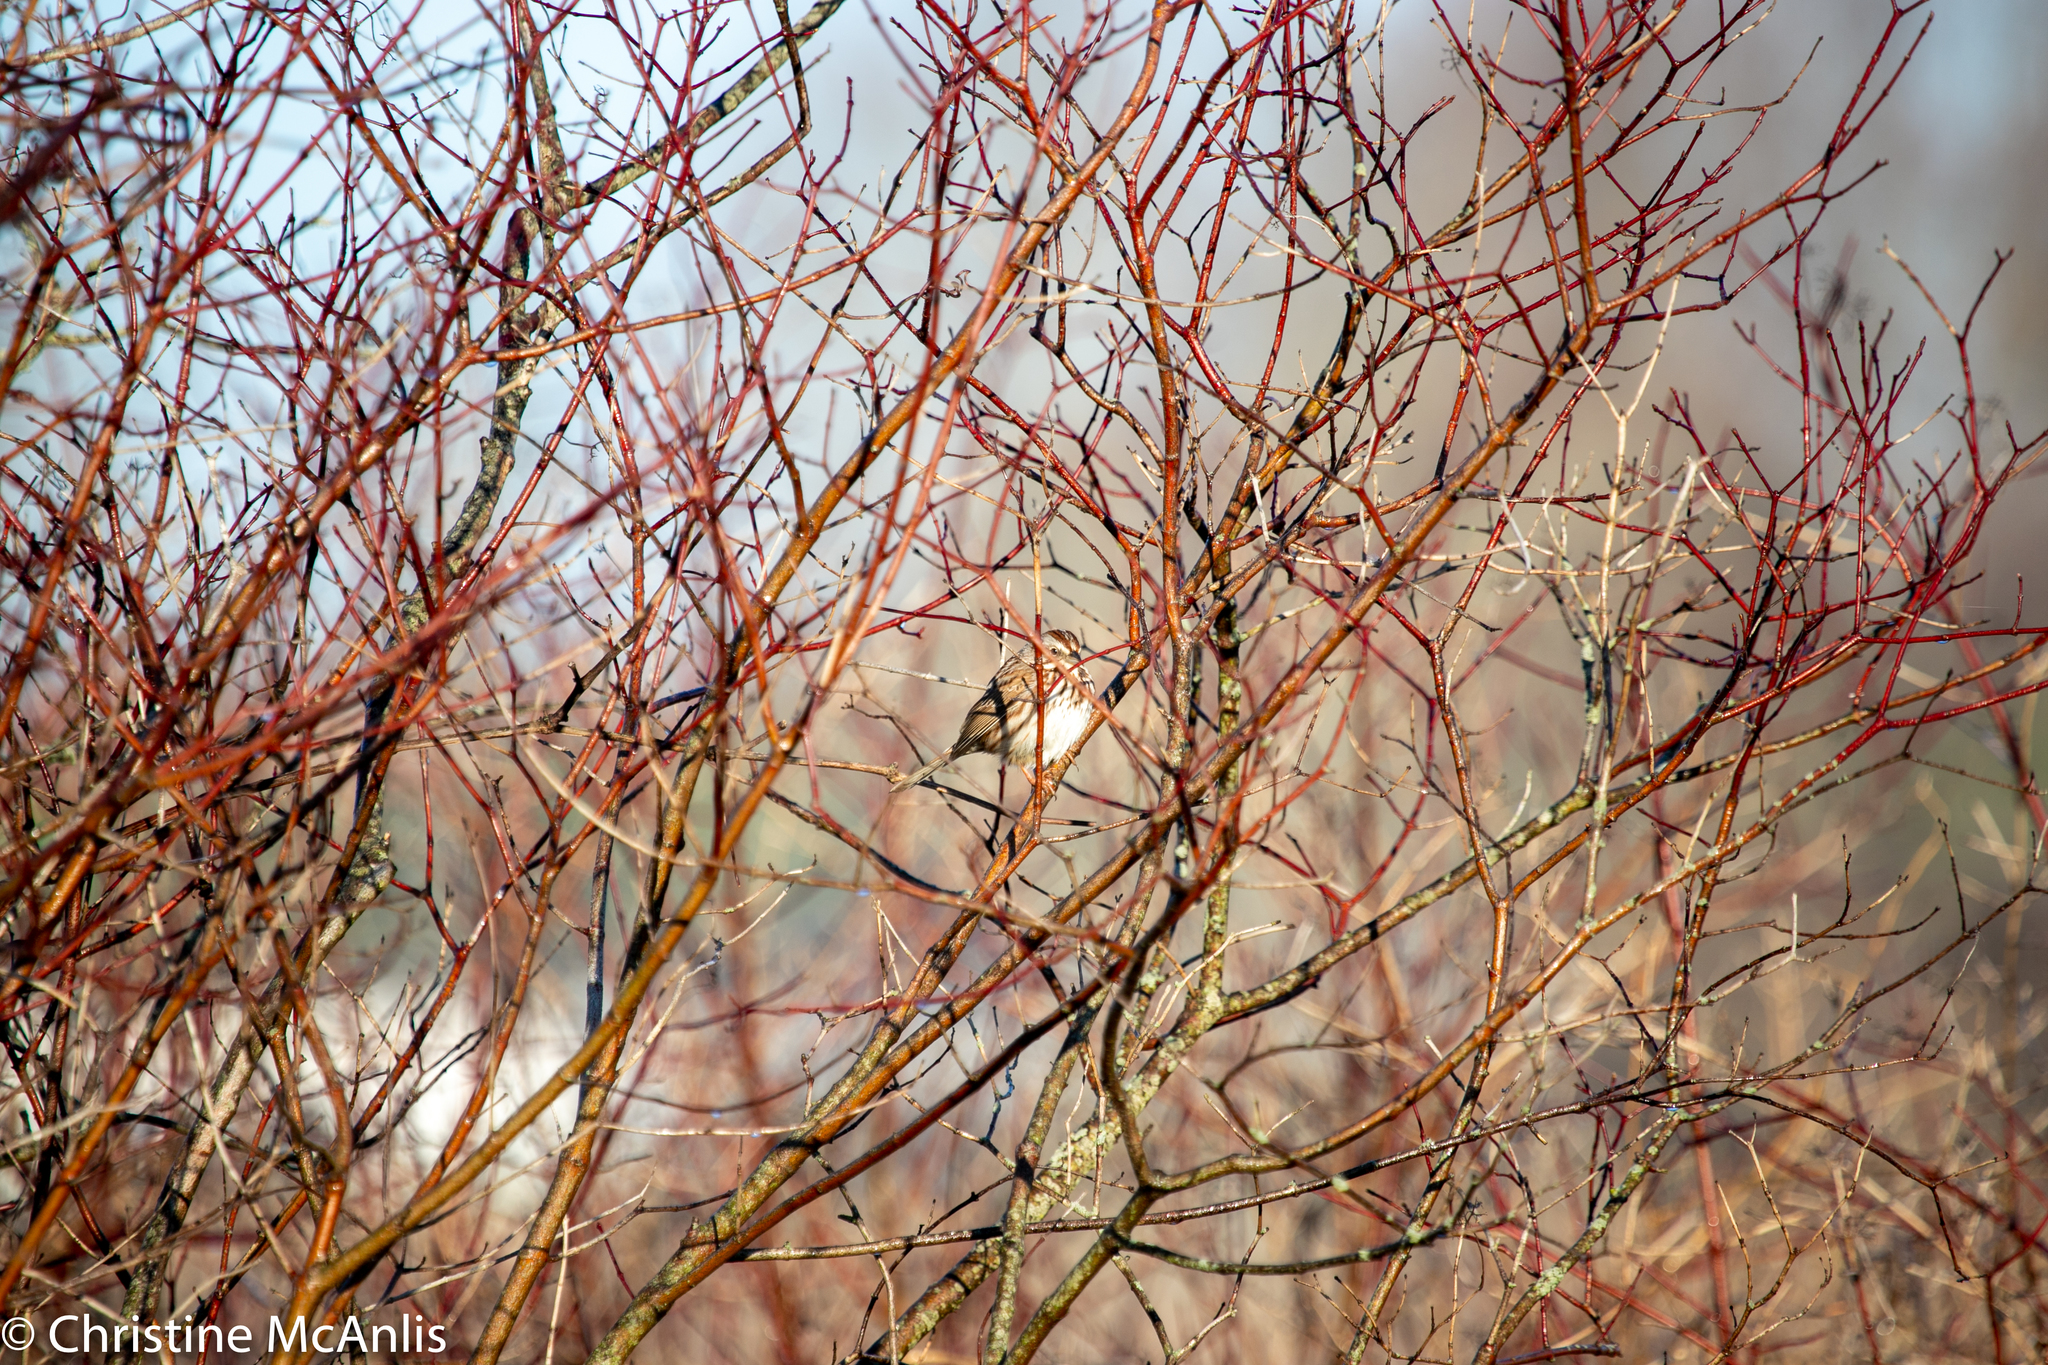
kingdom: Animalia
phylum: Chordata
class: Aves
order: Passeriformes
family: Passerellidae
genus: Melospiza
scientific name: Melospiza melodia
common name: Song sparrow
